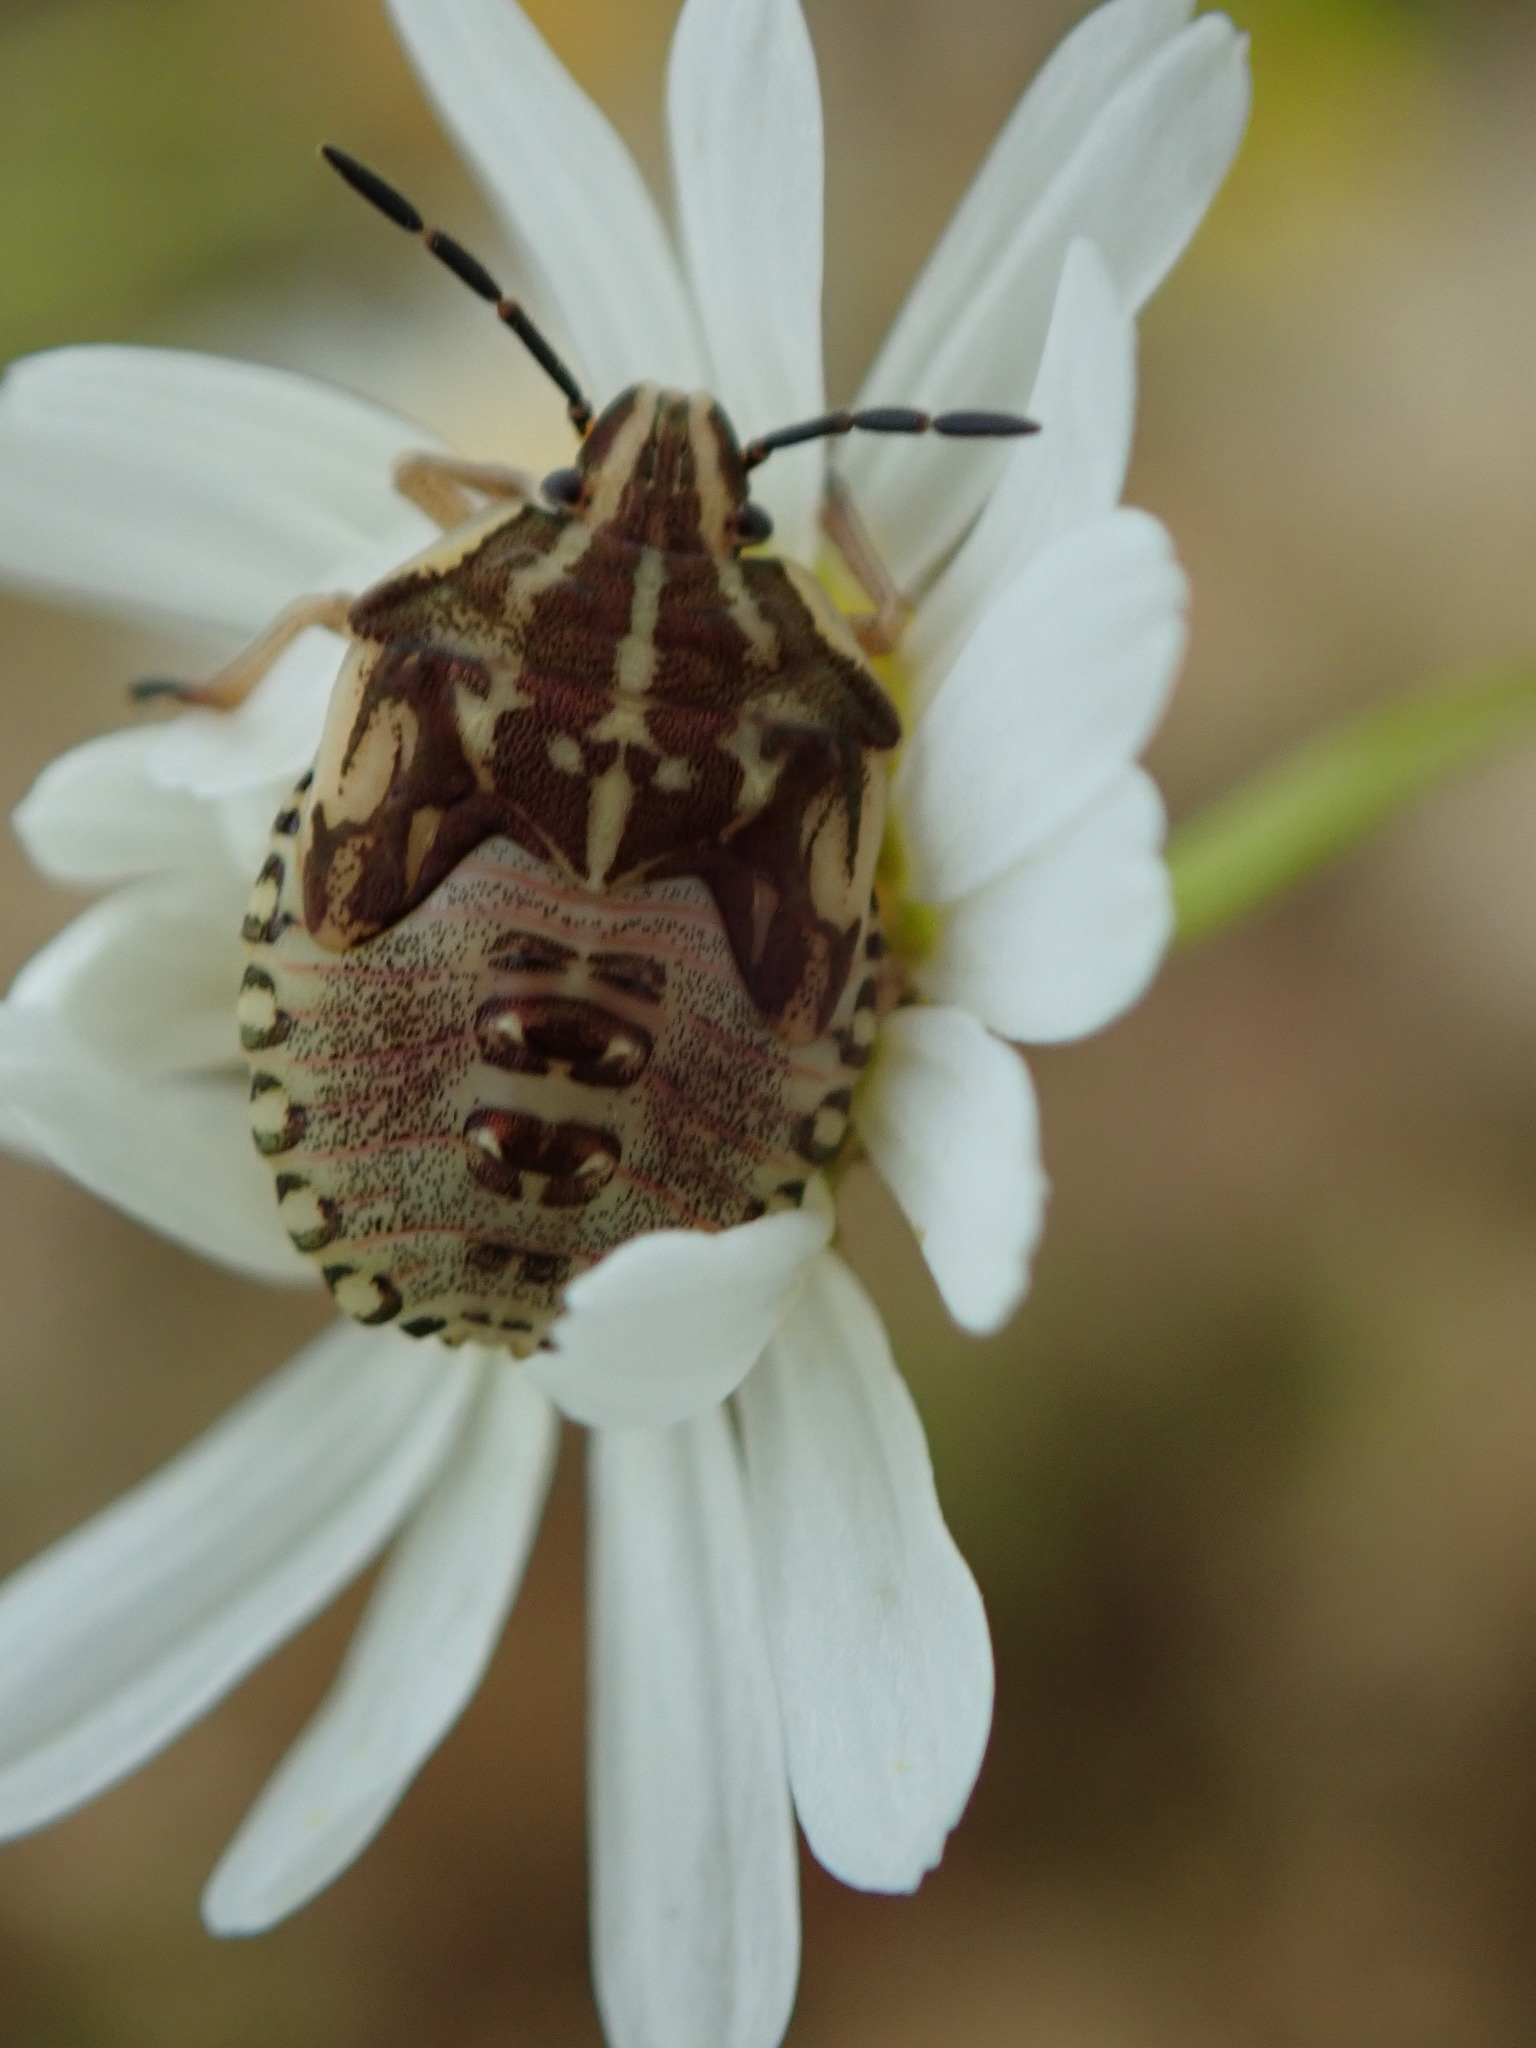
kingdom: Animalia
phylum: Arthropoda
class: Insecta
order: Hemiptera
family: Pentatomidae
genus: Carpocoris
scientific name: Carpocoris purpureipennis
